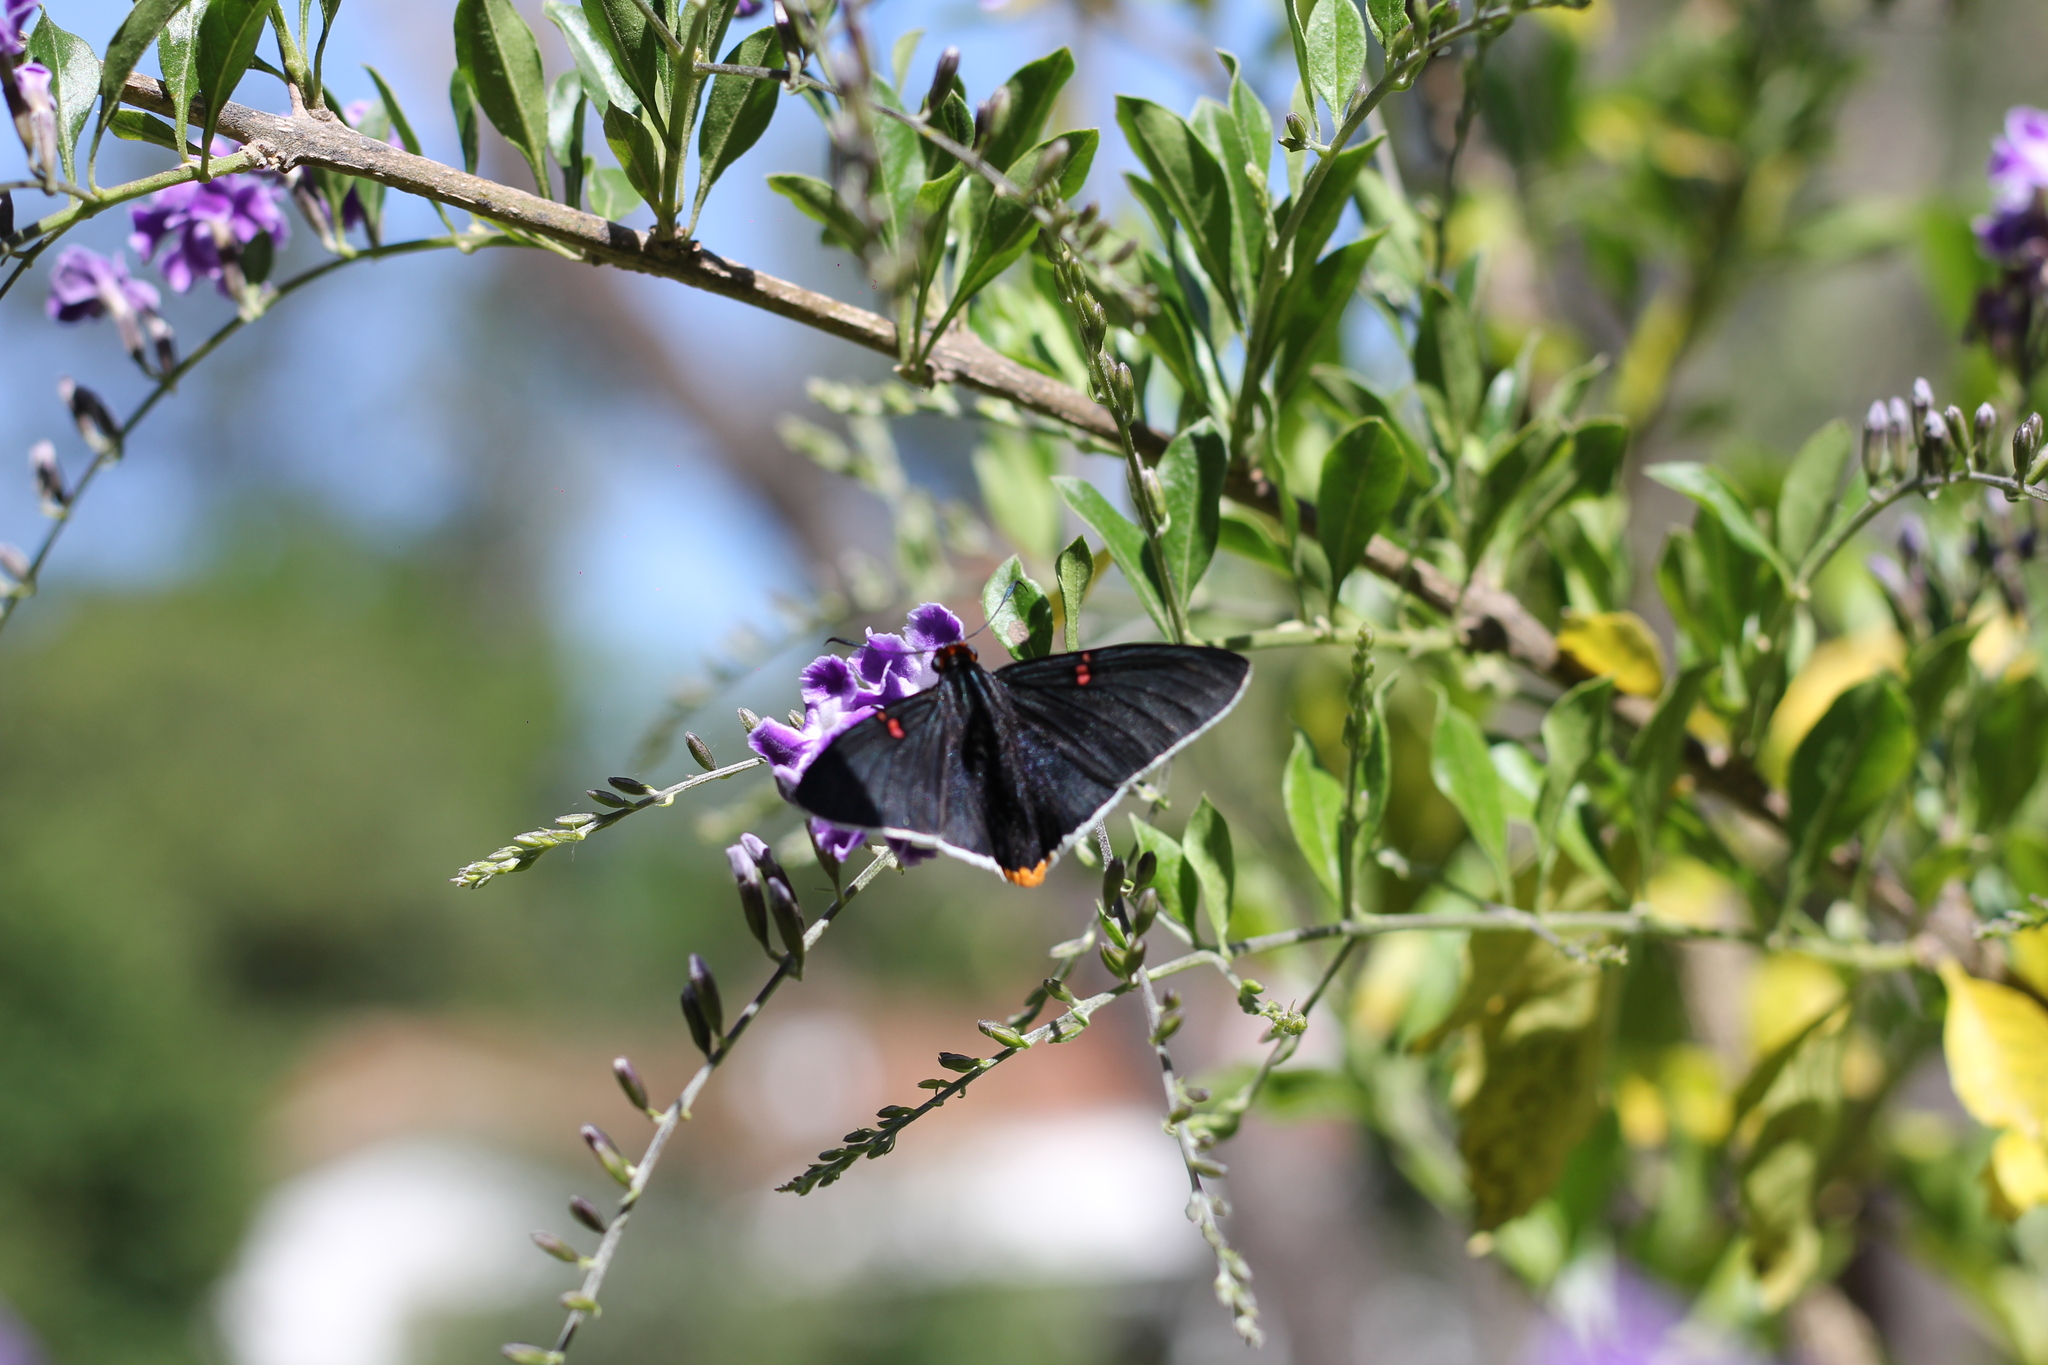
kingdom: Animalia
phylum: Arthropoda
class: Insecta
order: Lepidoptera
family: Hesperiidae
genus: Phocides
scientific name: Phocides polybius
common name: Guava skipper
